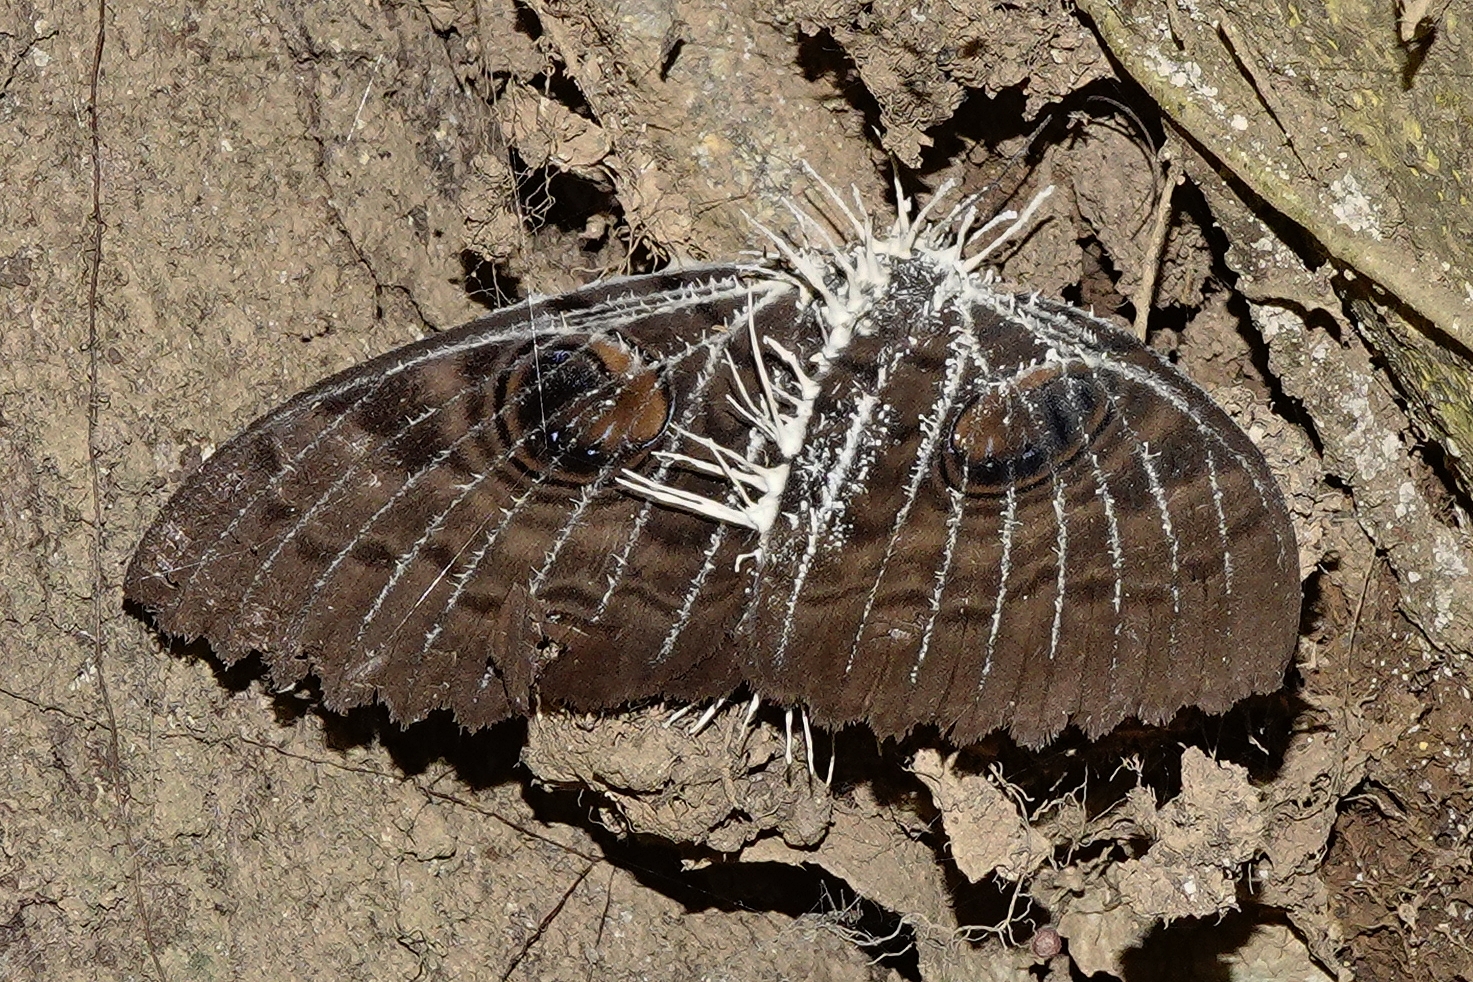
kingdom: Animalia
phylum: Arthropoda
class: Insecta
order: Lepidoptera
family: Erebidae
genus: Erebus
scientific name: Erebus walkeri
